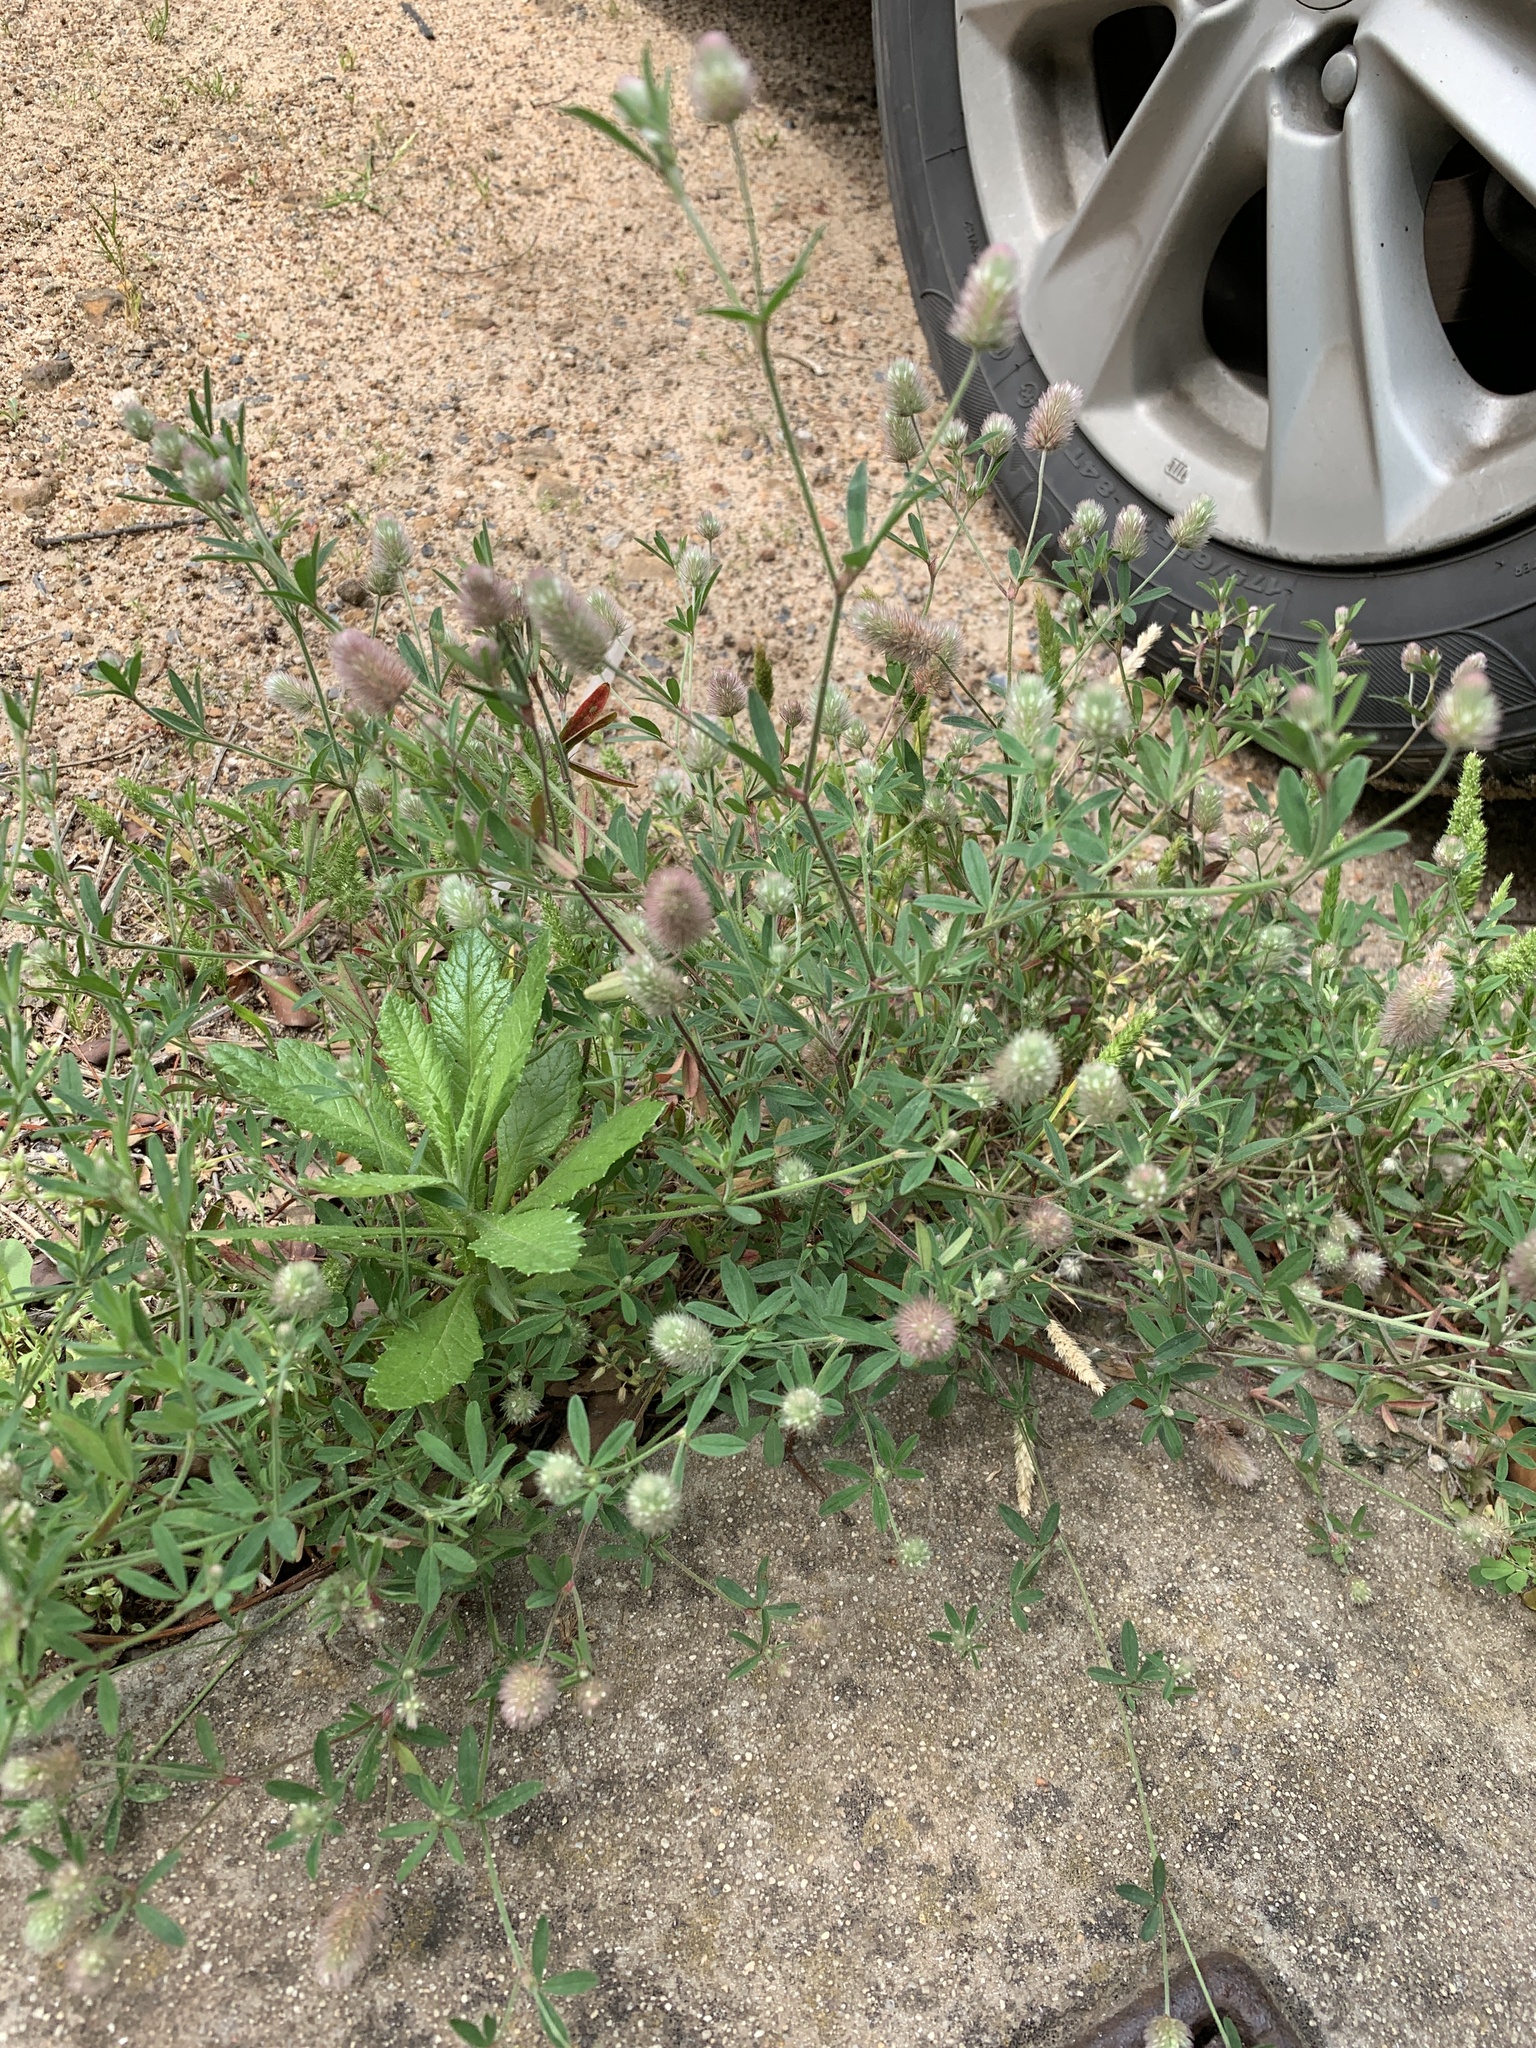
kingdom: Plantae
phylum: Tracheophyta
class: Magnoliopsida
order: Fabales
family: Fabaceae
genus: Trifolium
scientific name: Trifolium arvense
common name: Hare's-foot clover
